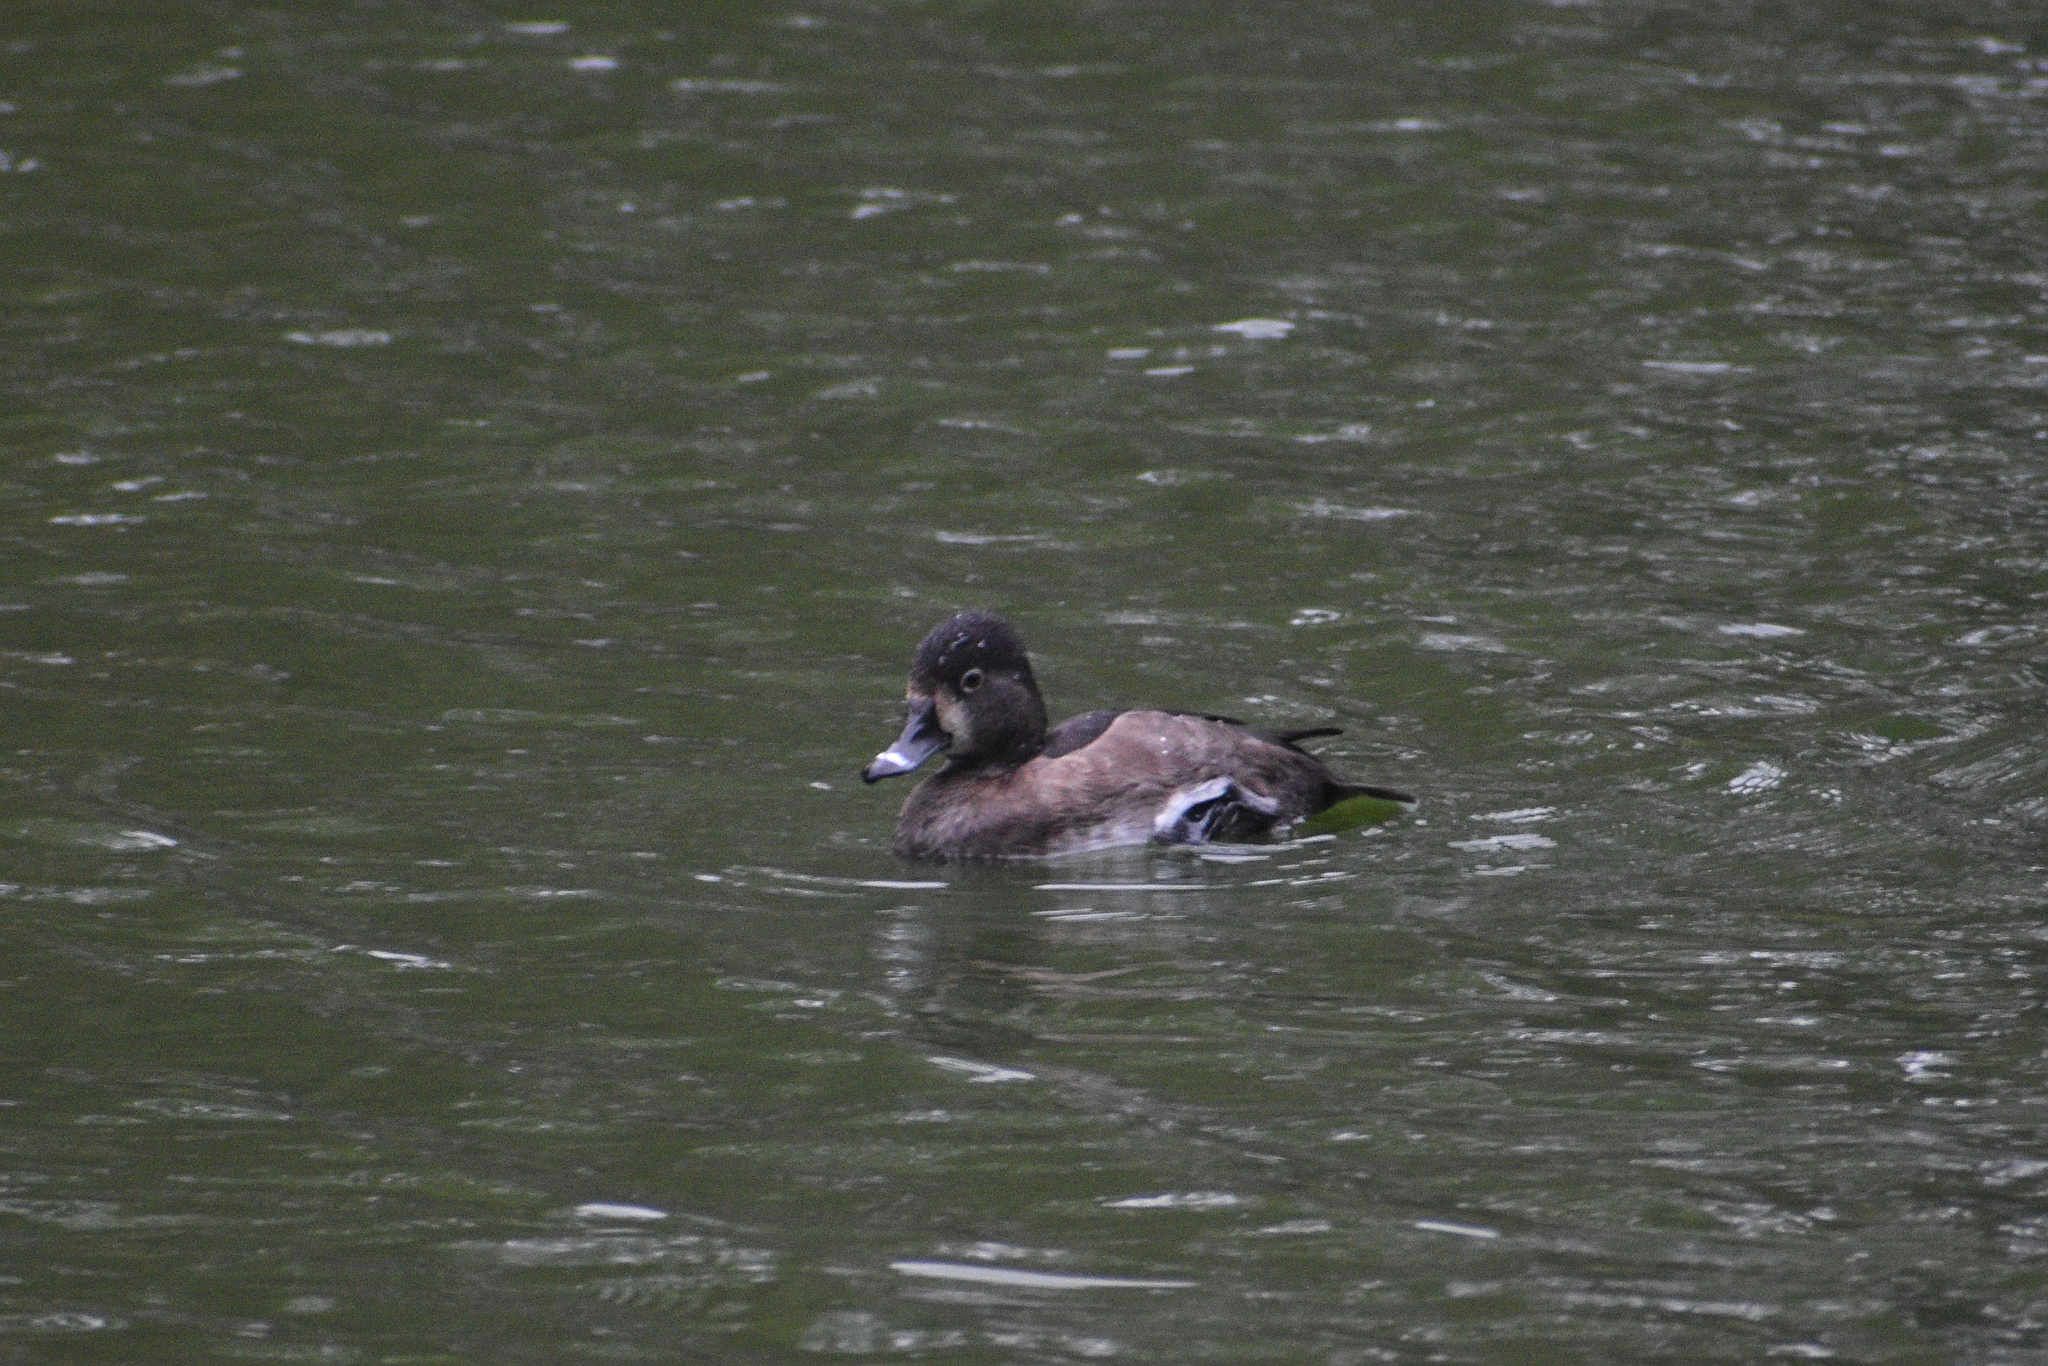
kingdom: Animalia
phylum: Chordata
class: Aves
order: Anseriformes
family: Anatidae
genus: Aythya
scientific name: Aythya collaris
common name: Ring-necked duck
